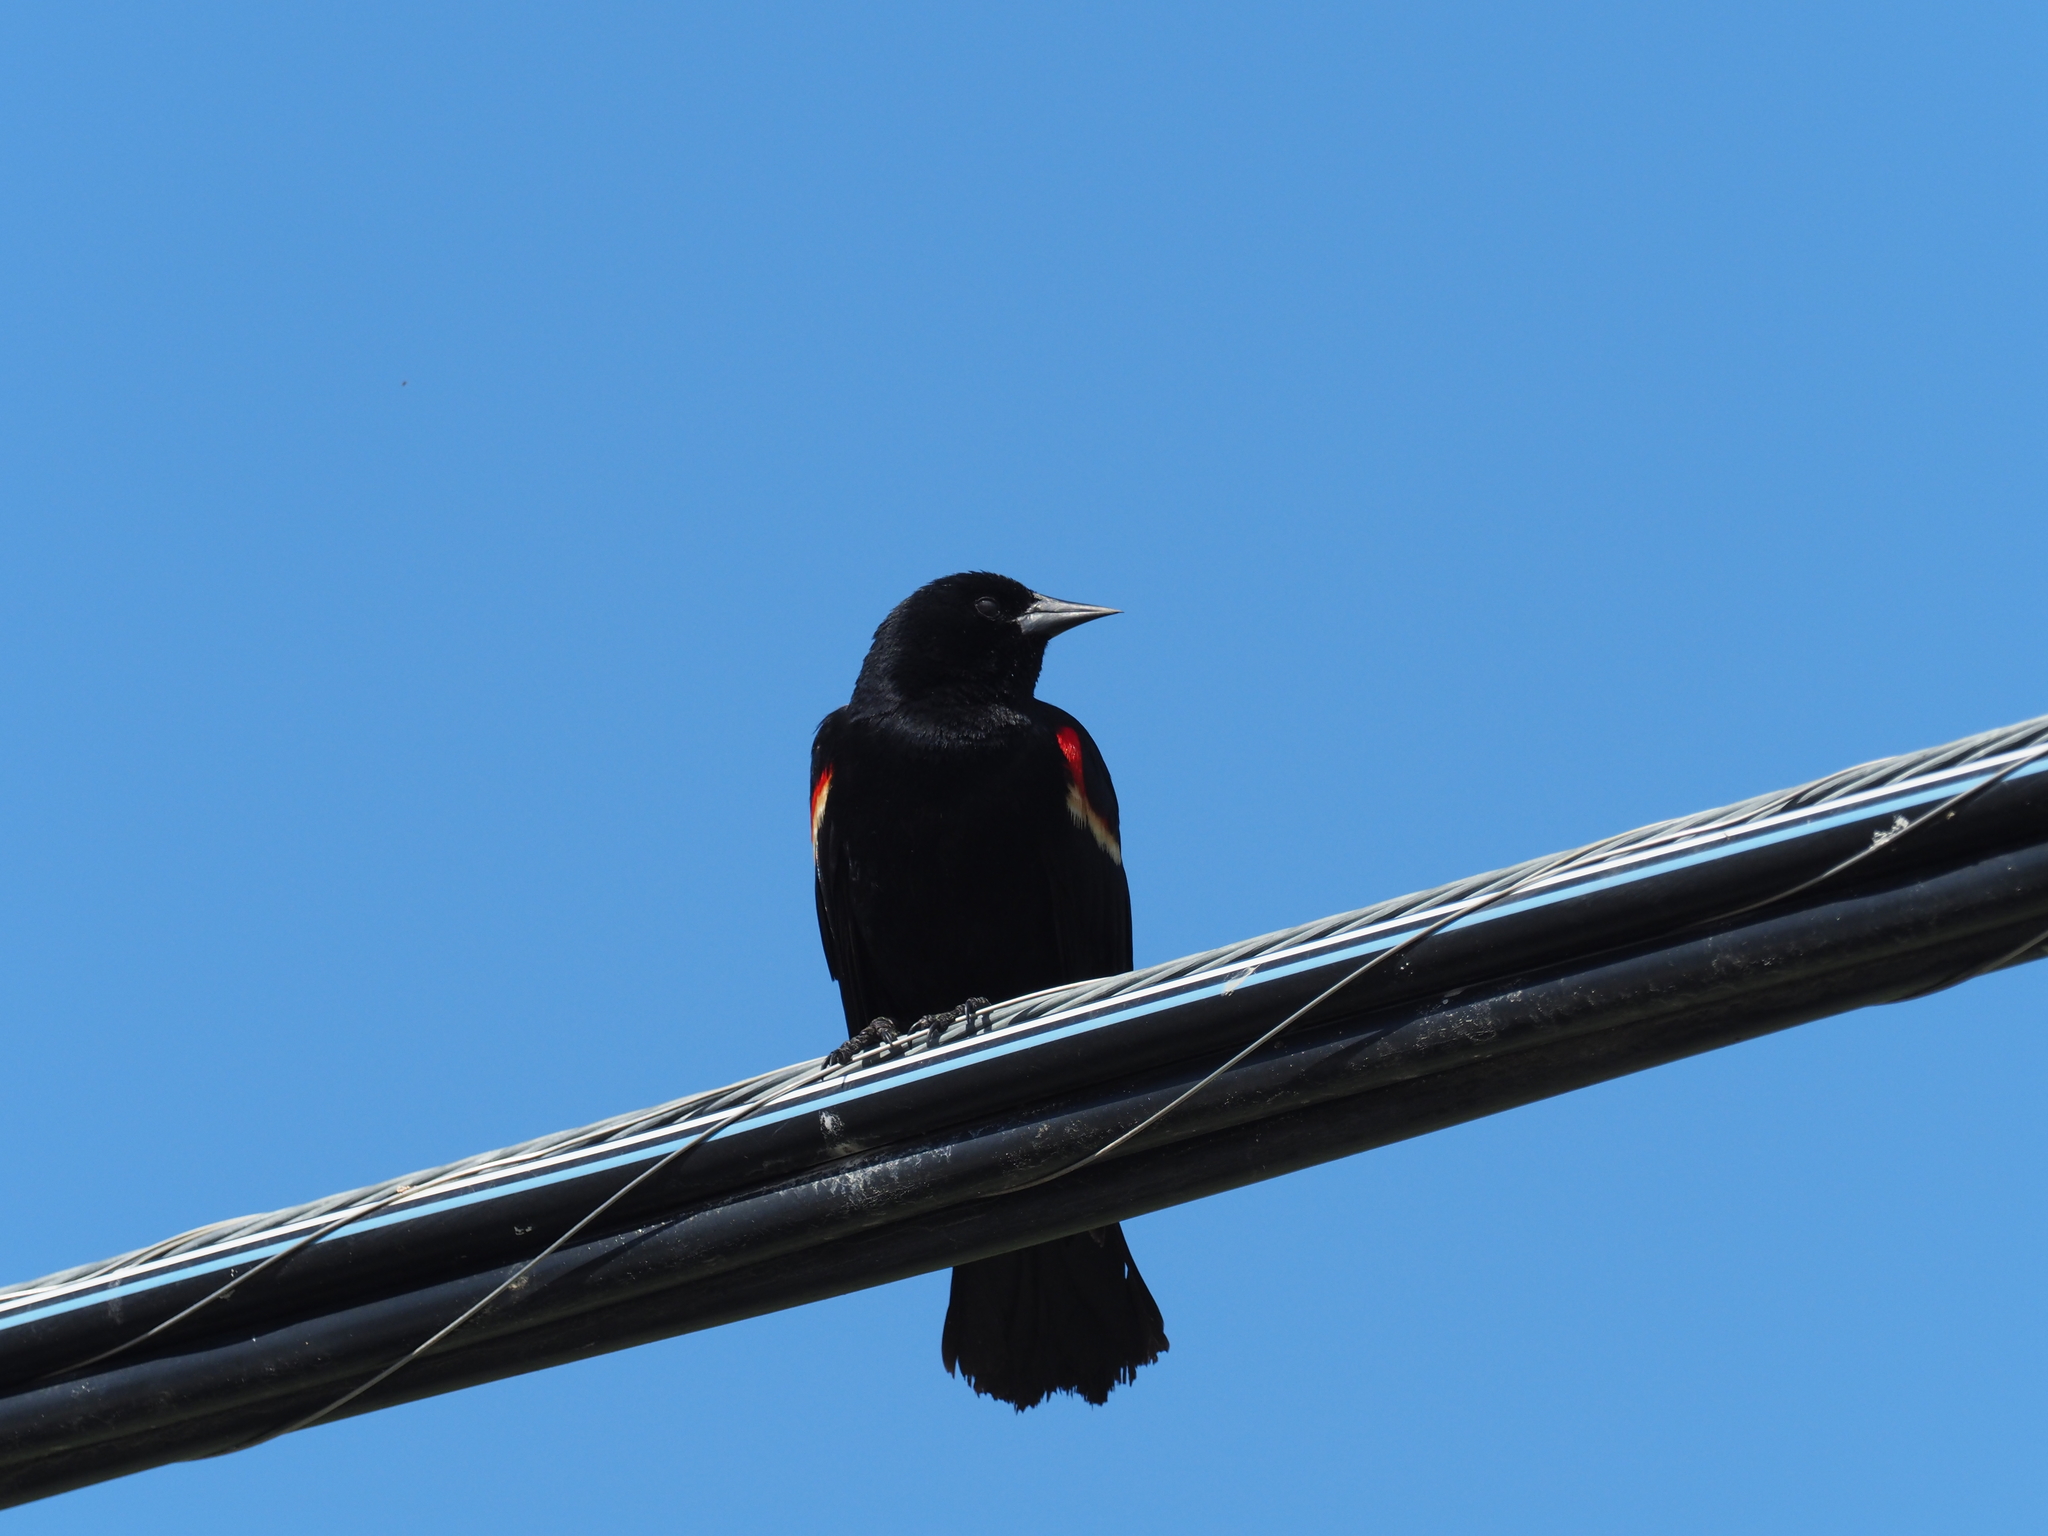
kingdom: Animalia
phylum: Chordata
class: Aves
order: Passeriformes
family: Icteridae
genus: Agelaius
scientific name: Agelaius phoeniceus
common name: Red-winged blackbird
